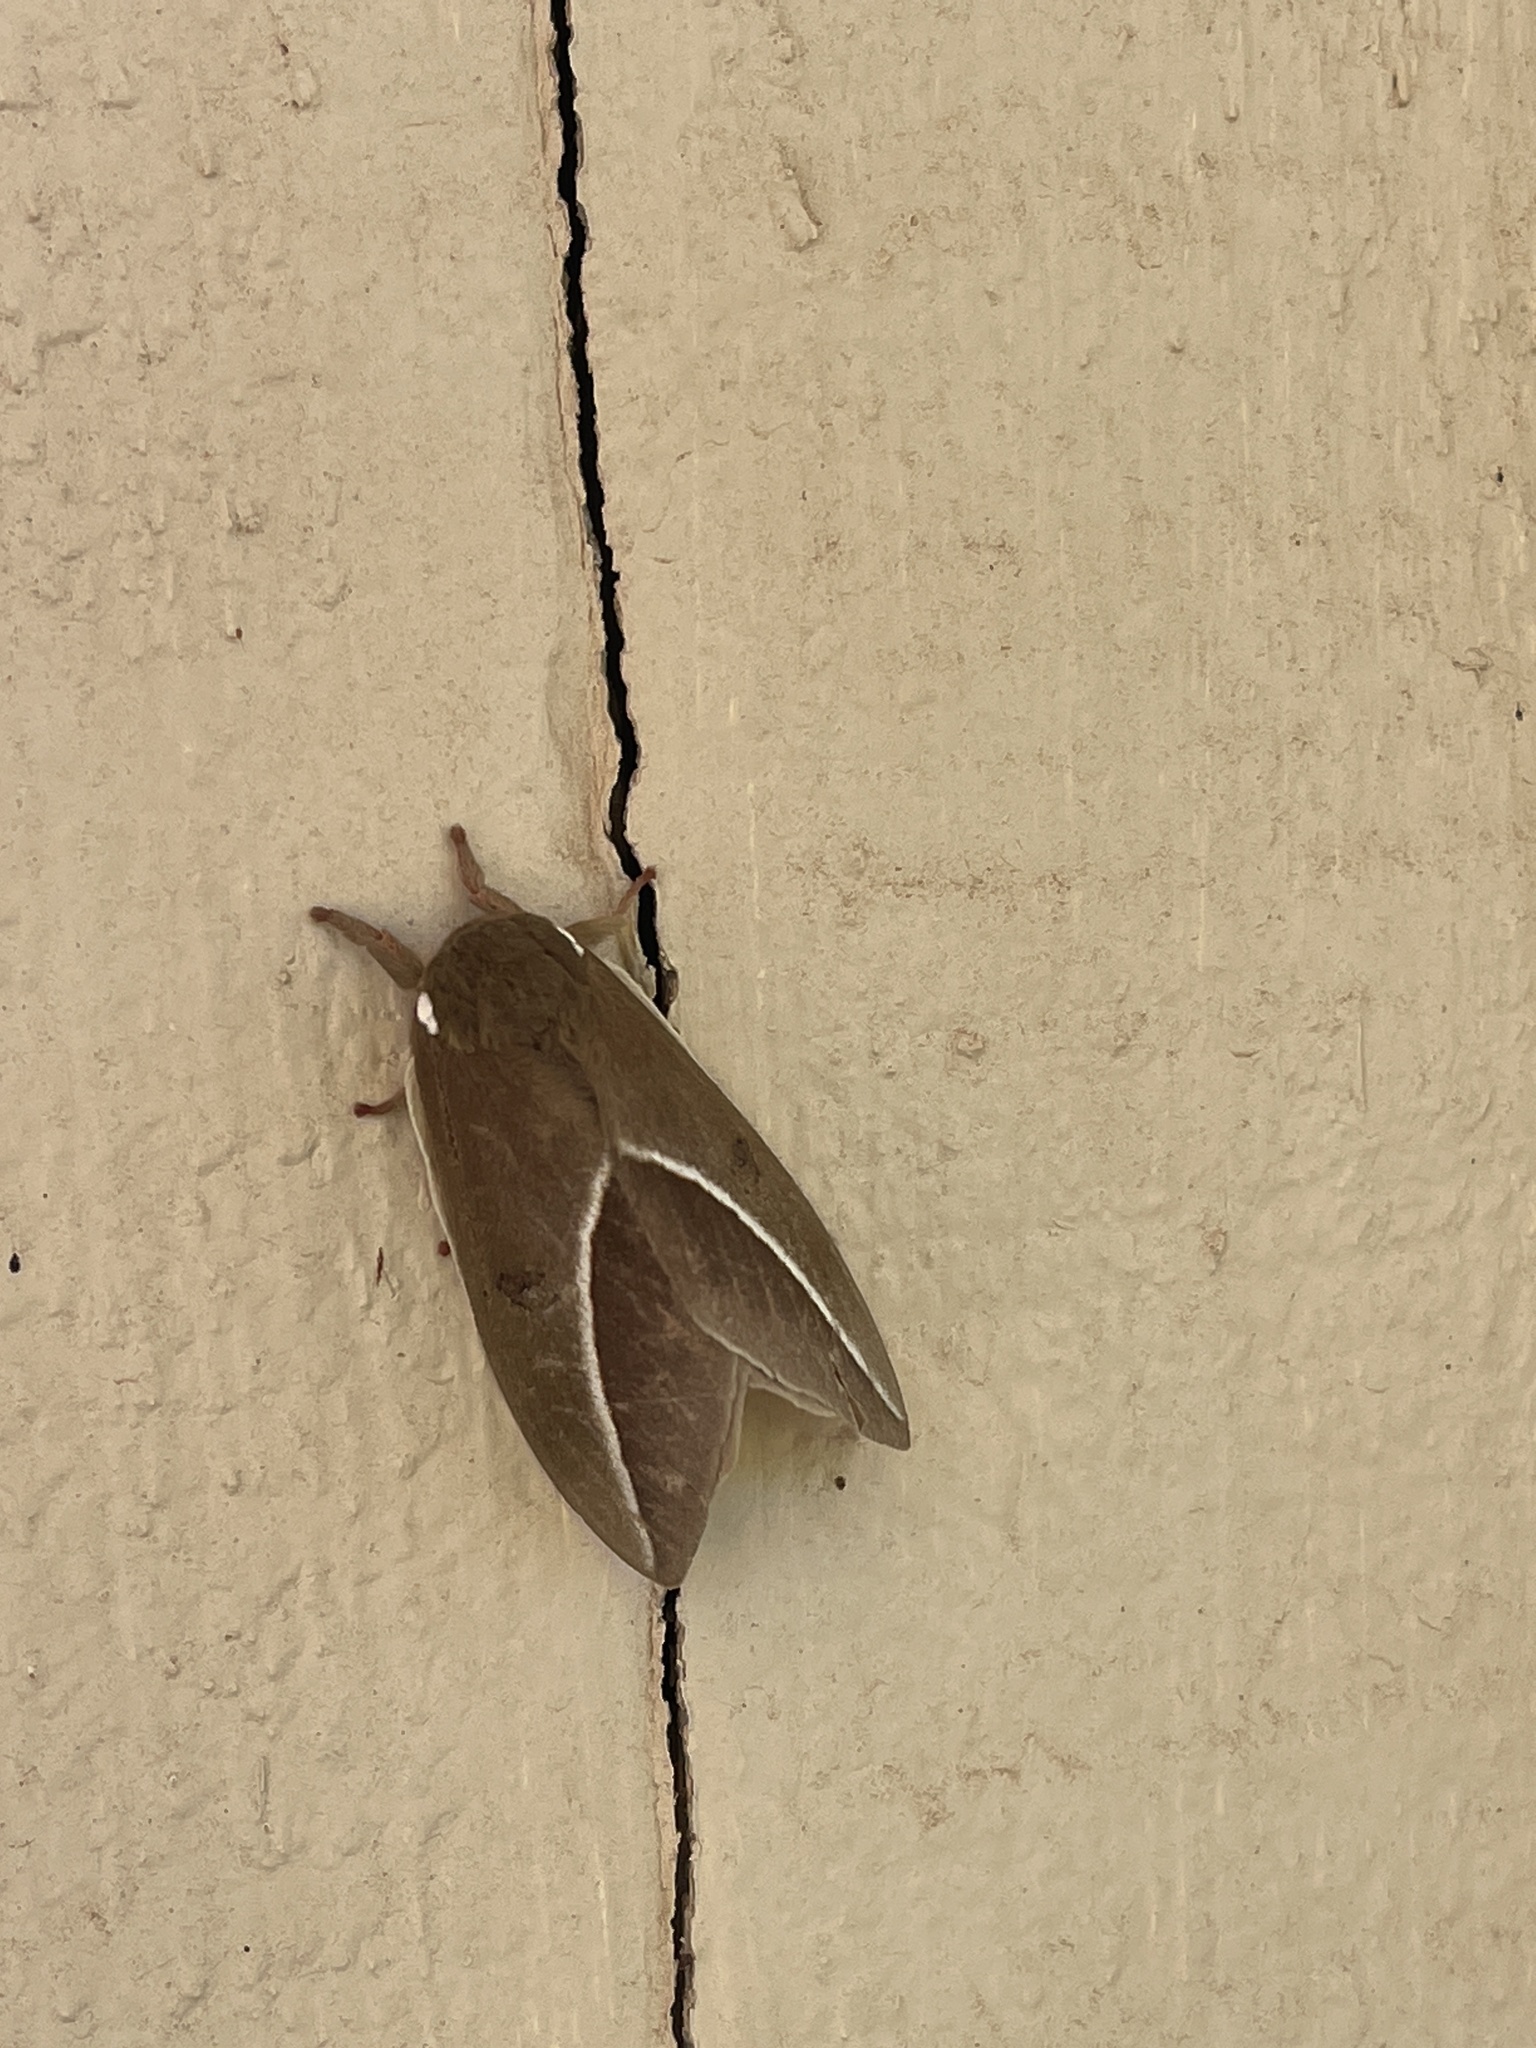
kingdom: Animalia
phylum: Arthropoda
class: Insecta
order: Lepidoptera
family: Saturniidae
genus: Automeris
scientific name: Automeris zephyria
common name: Zephyr eyed silkmoth
